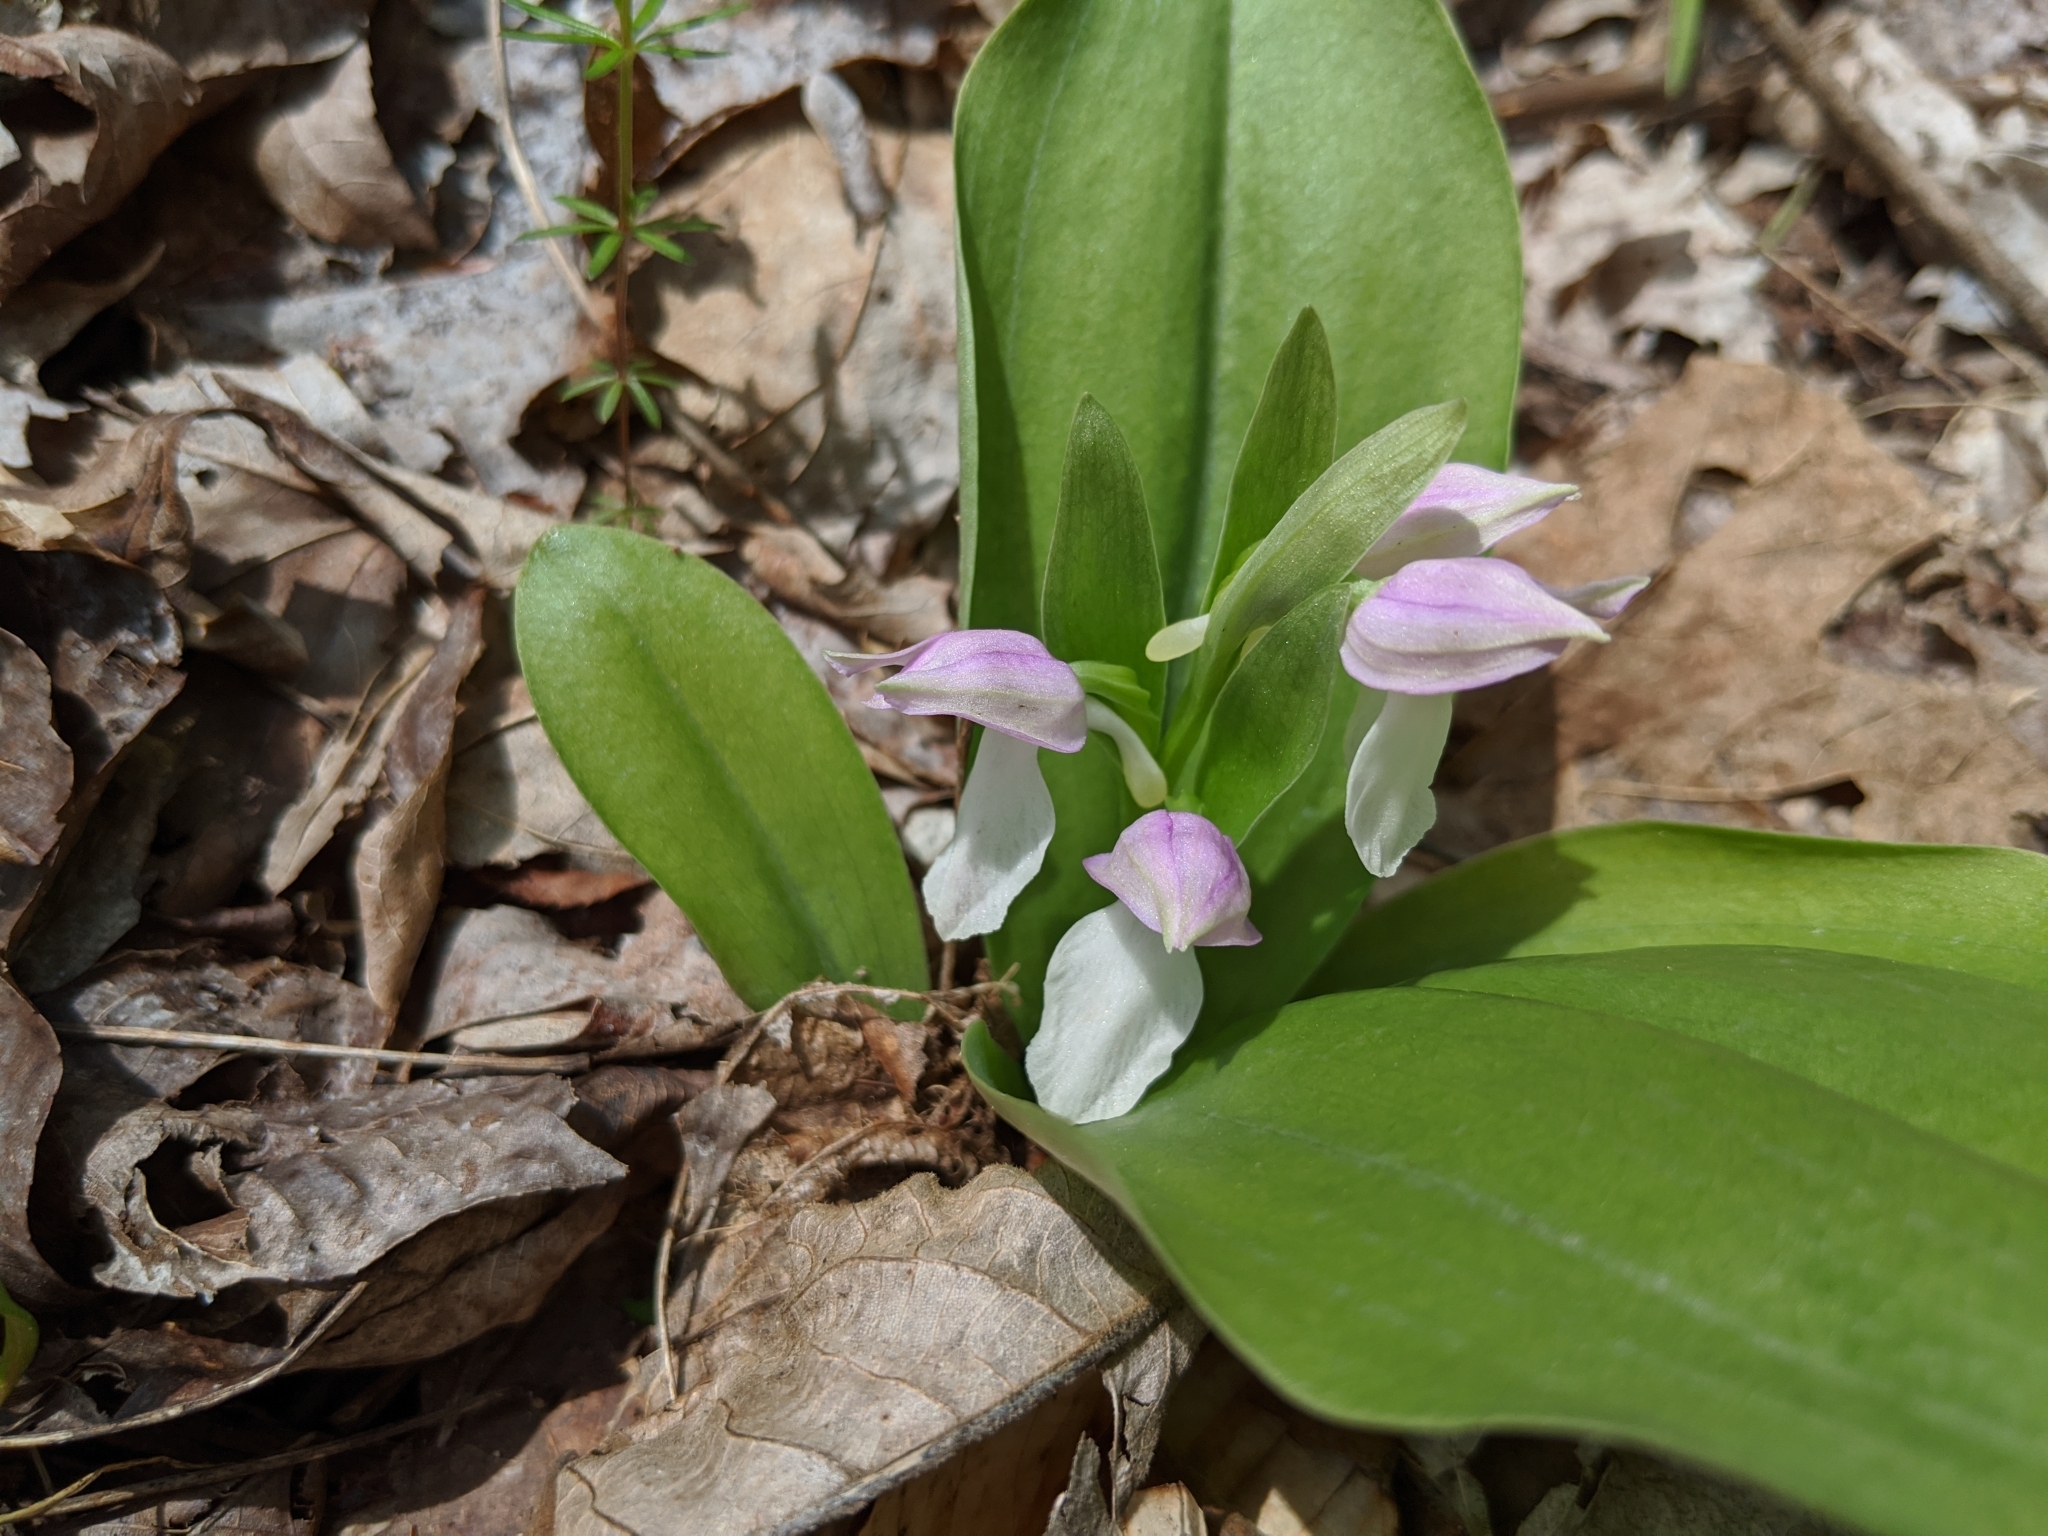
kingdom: Plantae
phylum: Tracheophyta
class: Liliopsida
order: Asparagales
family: Orchidaceae
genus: Galearis
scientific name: Galearis spectabilis
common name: Purple-hooded orchis
